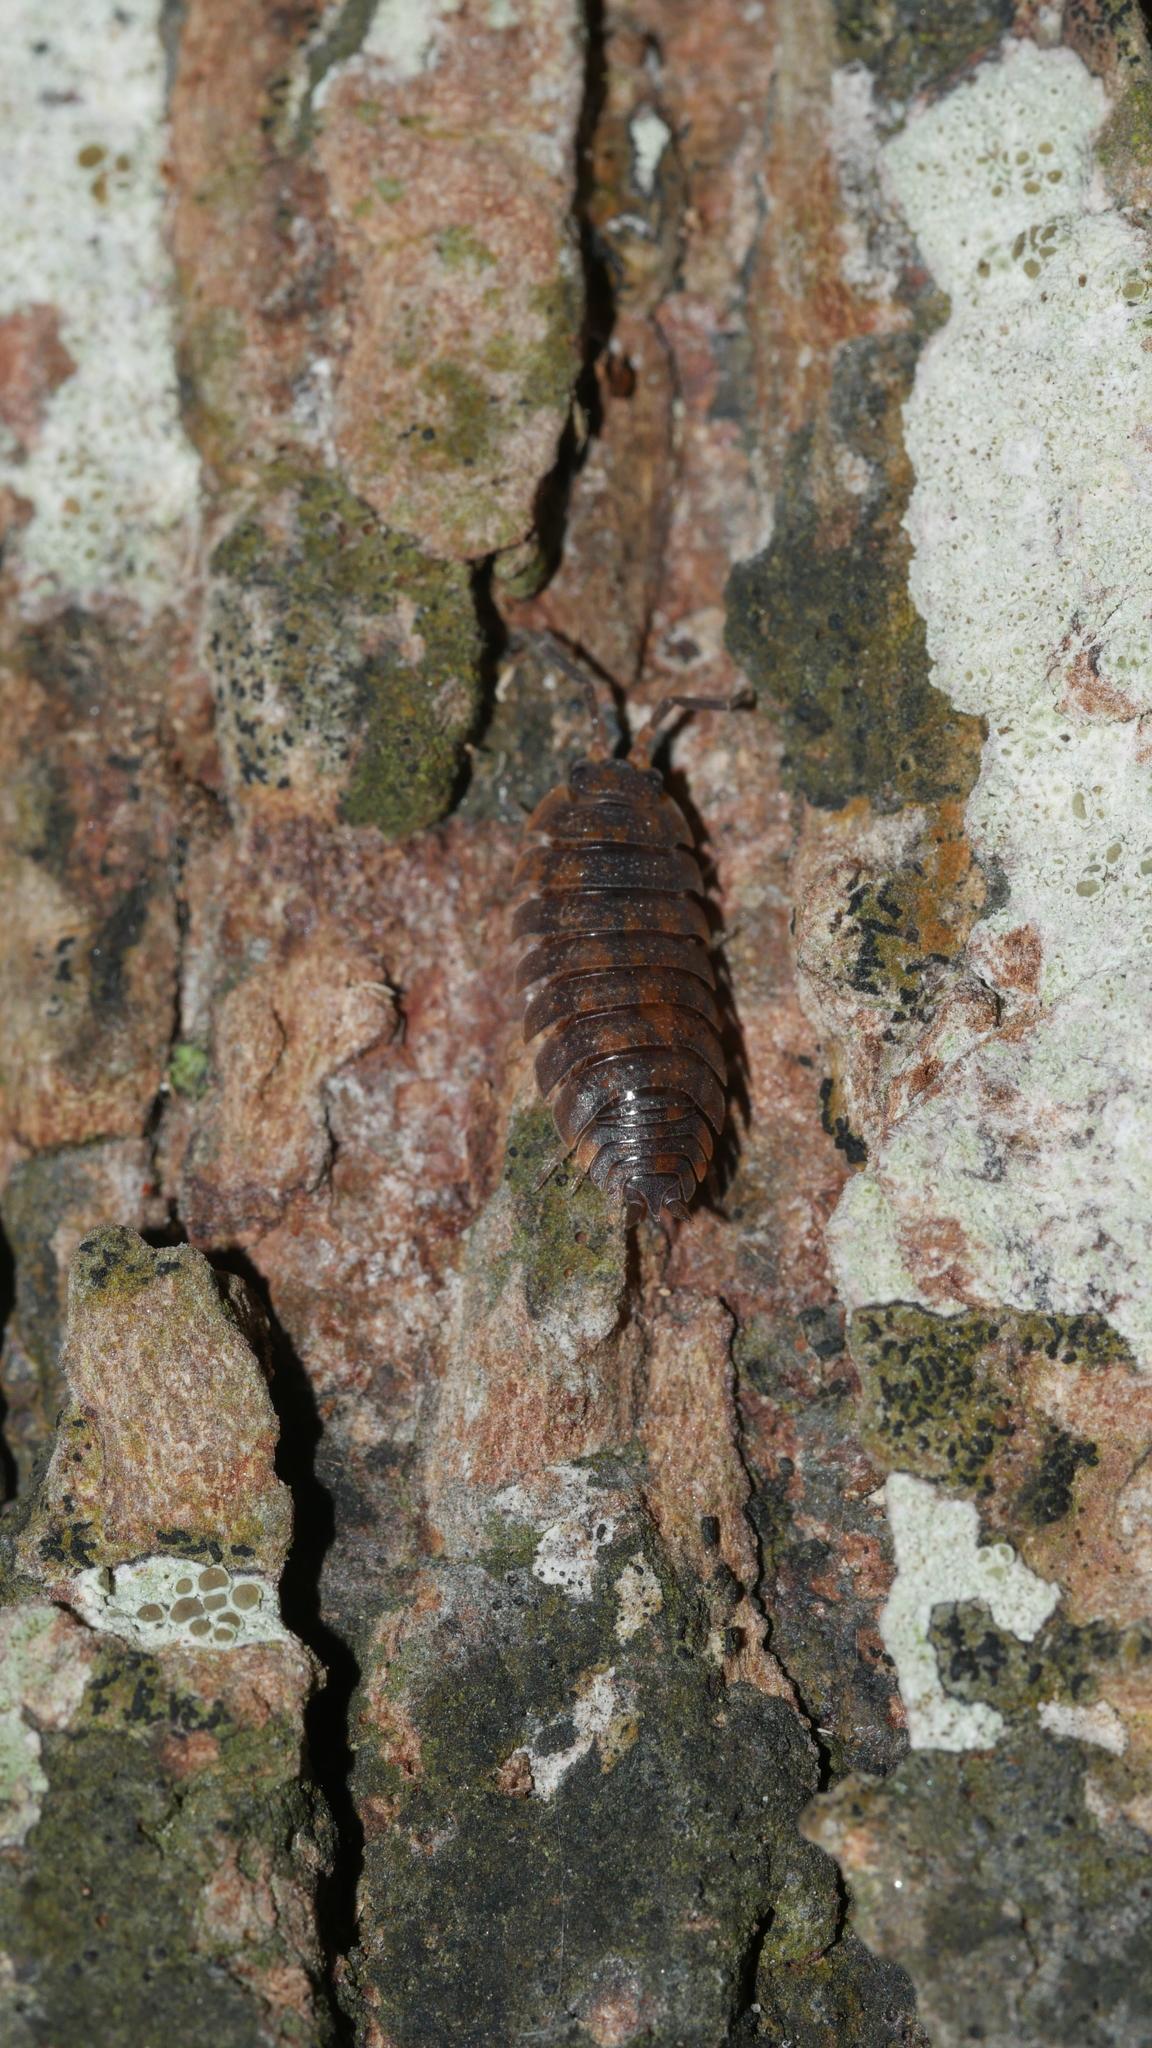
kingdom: Animalia
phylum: Arthropoda
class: Malacostraca
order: Isopoda
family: Porcellionidae
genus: Porcellio
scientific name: Porcellio scaber
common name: Common rough woodlouse
